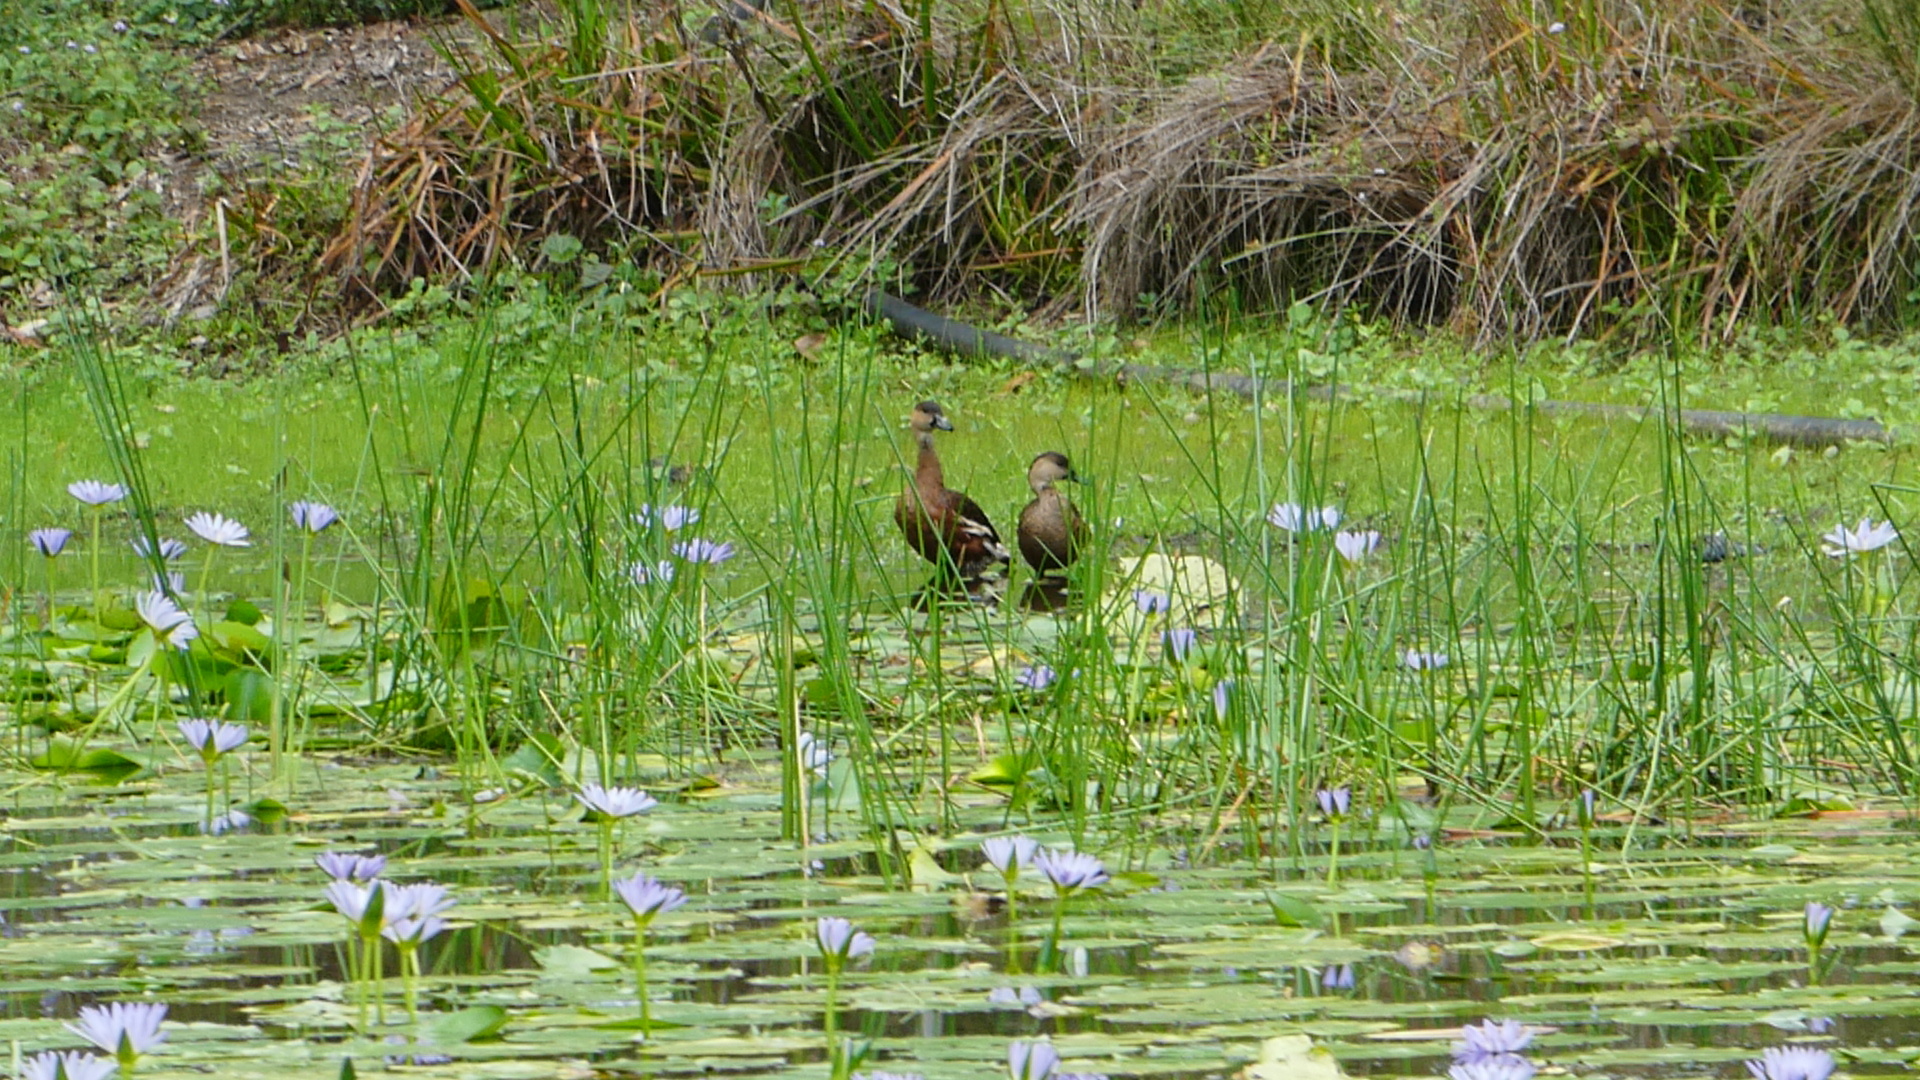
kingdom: Animalia
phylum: Chordata
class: Aves
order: Anseriformes
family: Anatidae
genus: Dendrocygna
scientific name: Dendrocygna arcuata
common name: Wandering whistling-duck
